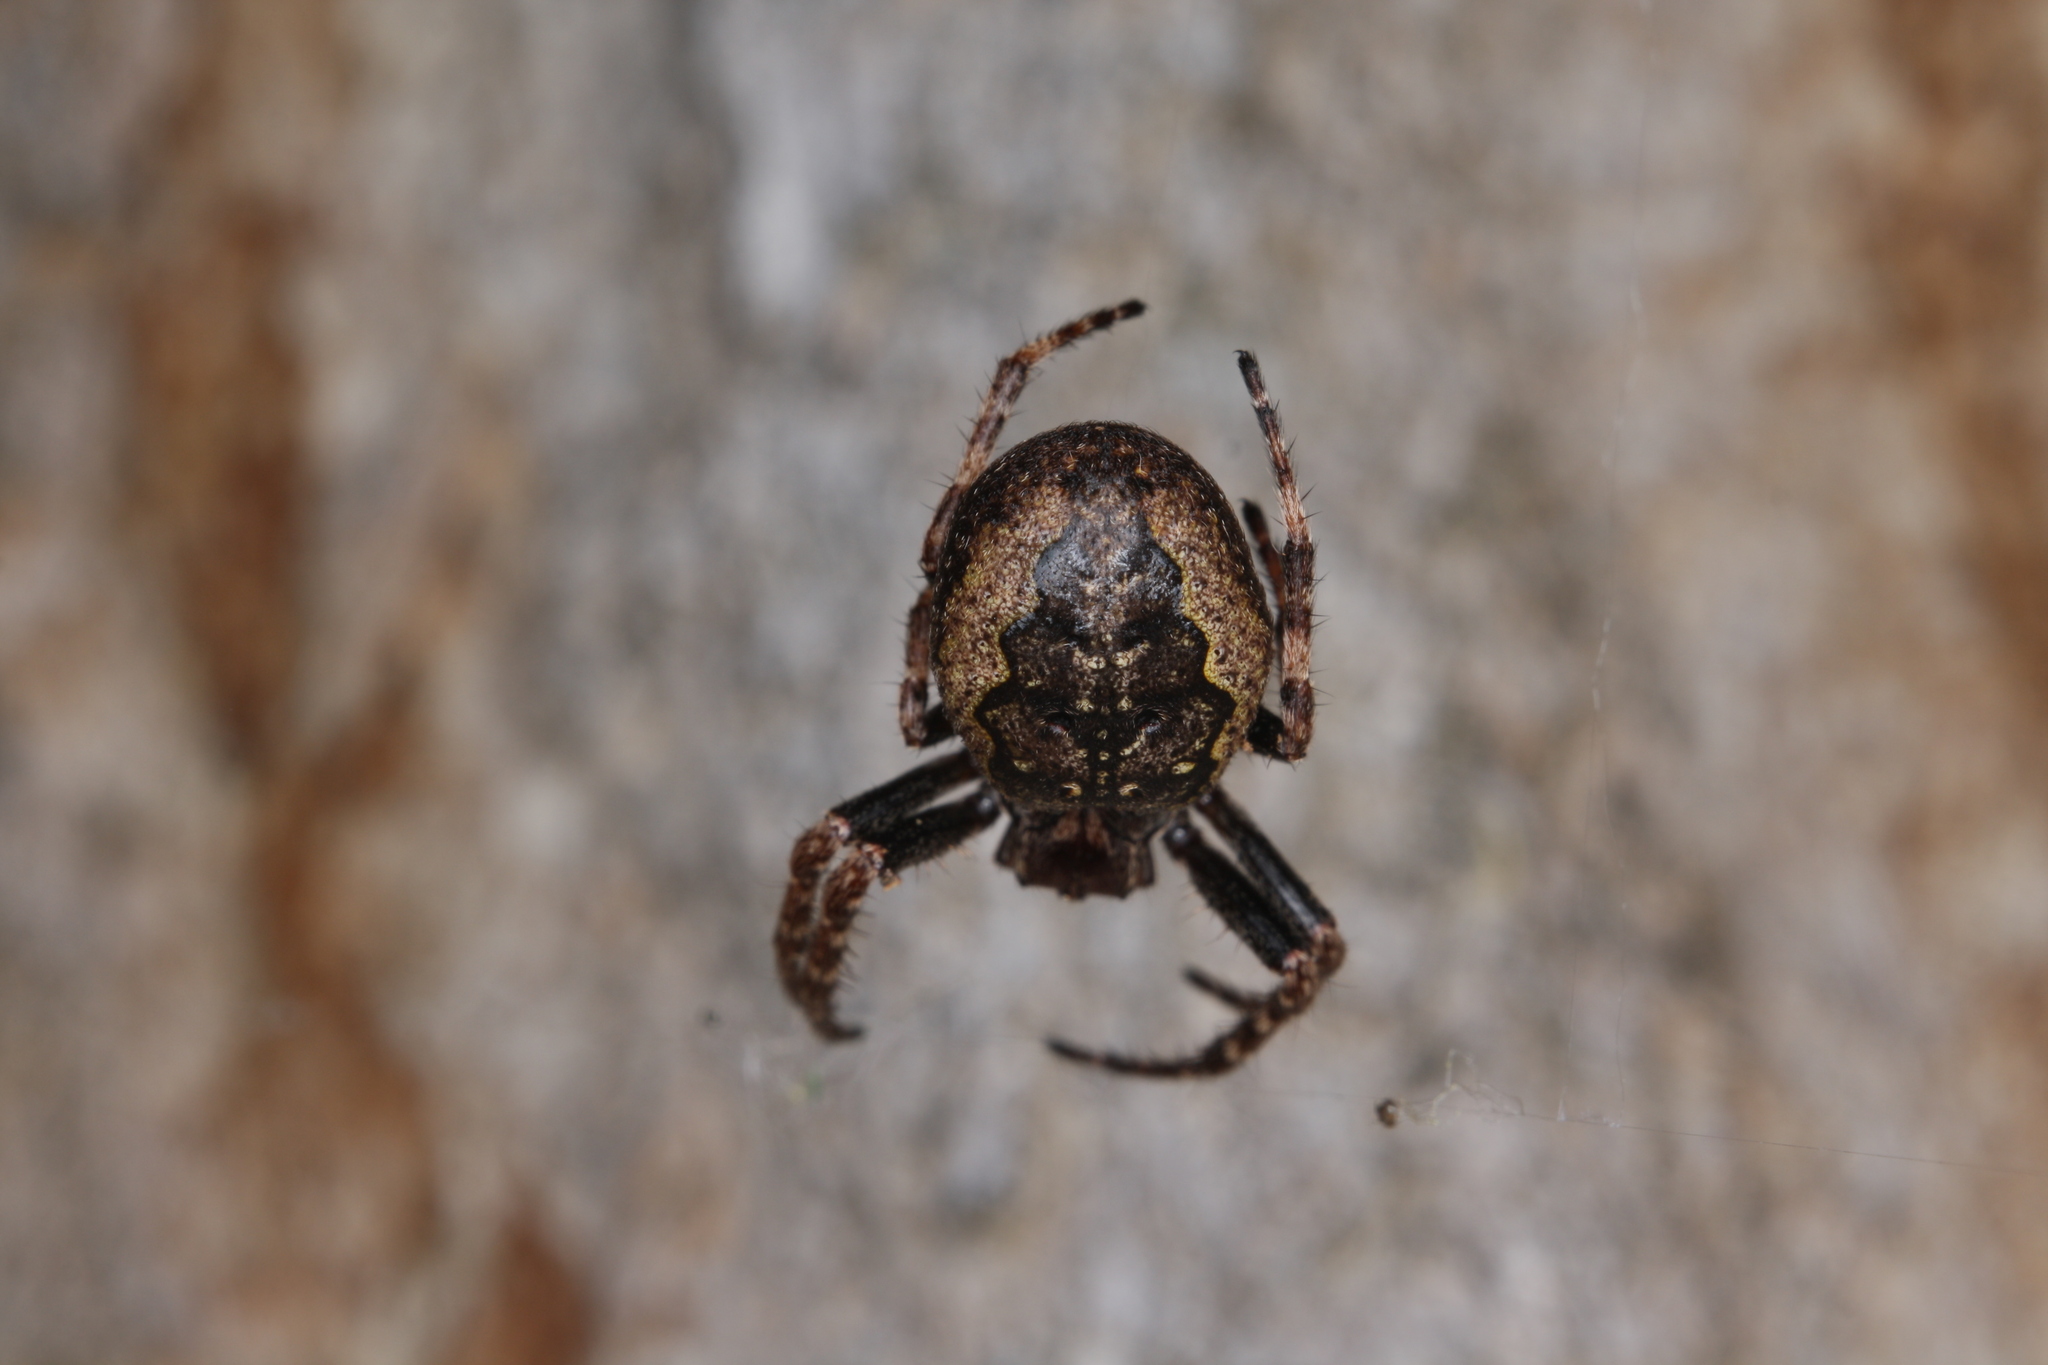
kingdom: Animalia
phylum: Arthropoda
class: Arachnida
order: Araneae
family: Araneidae
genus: Nuctenea
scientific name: Nuctenea umbratica
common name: Toad spider
